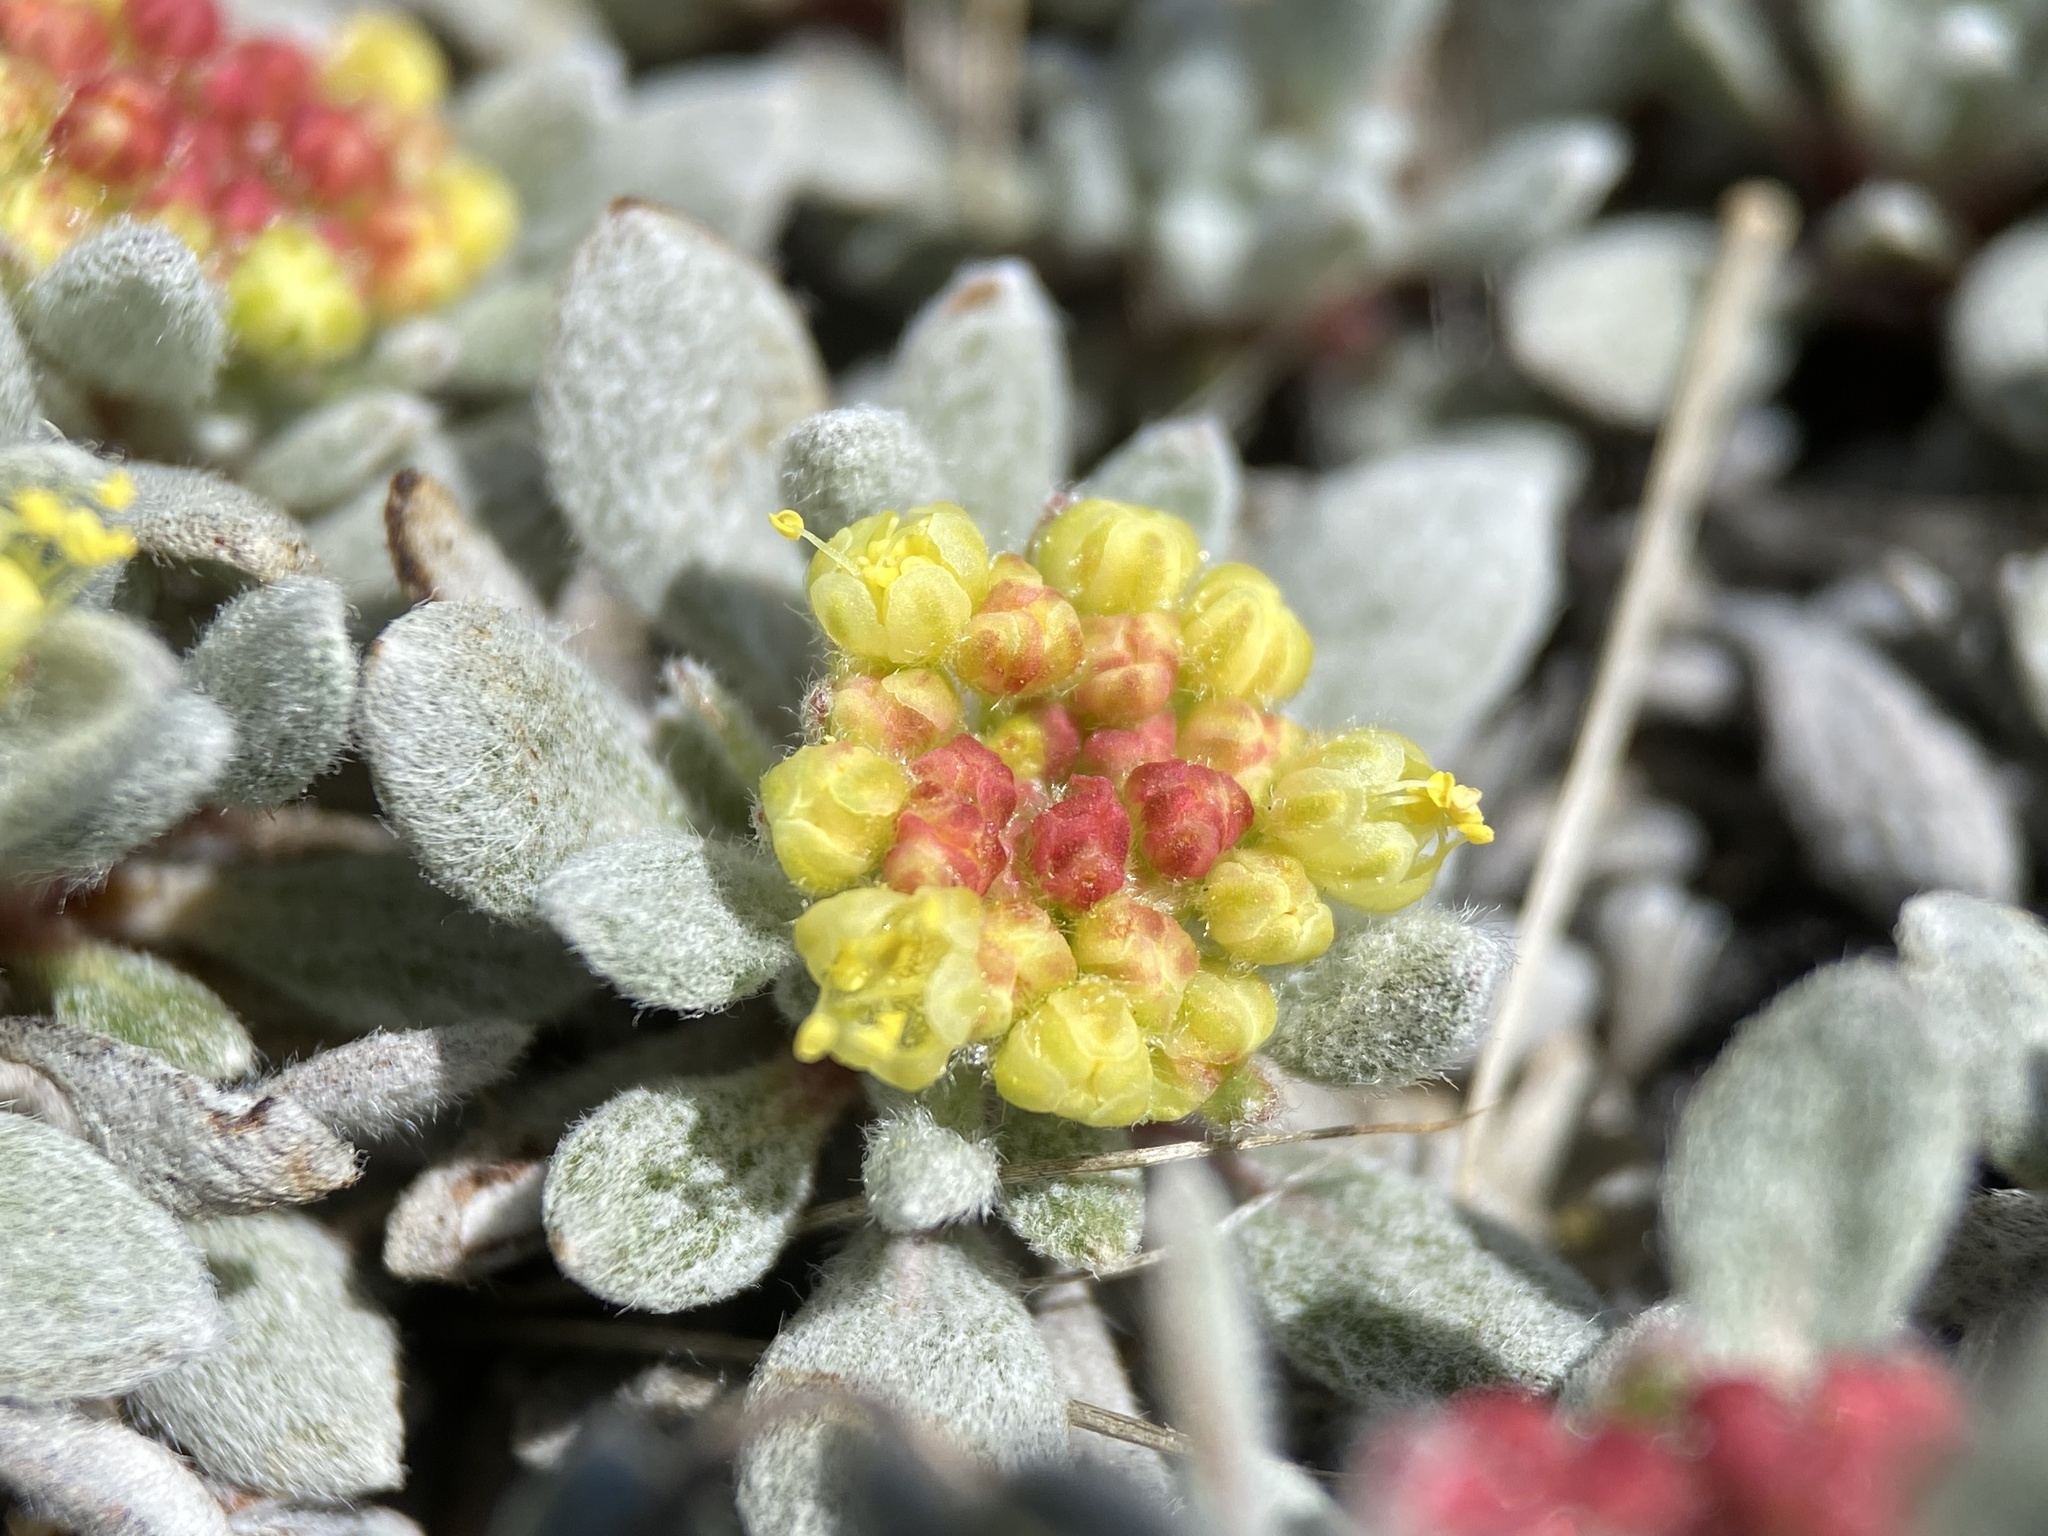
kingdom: Plantae
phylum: Tracheophyta
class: Magnoliopsida
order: Caryophyllales
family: Polygonaceae
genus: Eriogonum
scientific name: Eriogonum caespitosum
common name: Matted wild buckwheat
